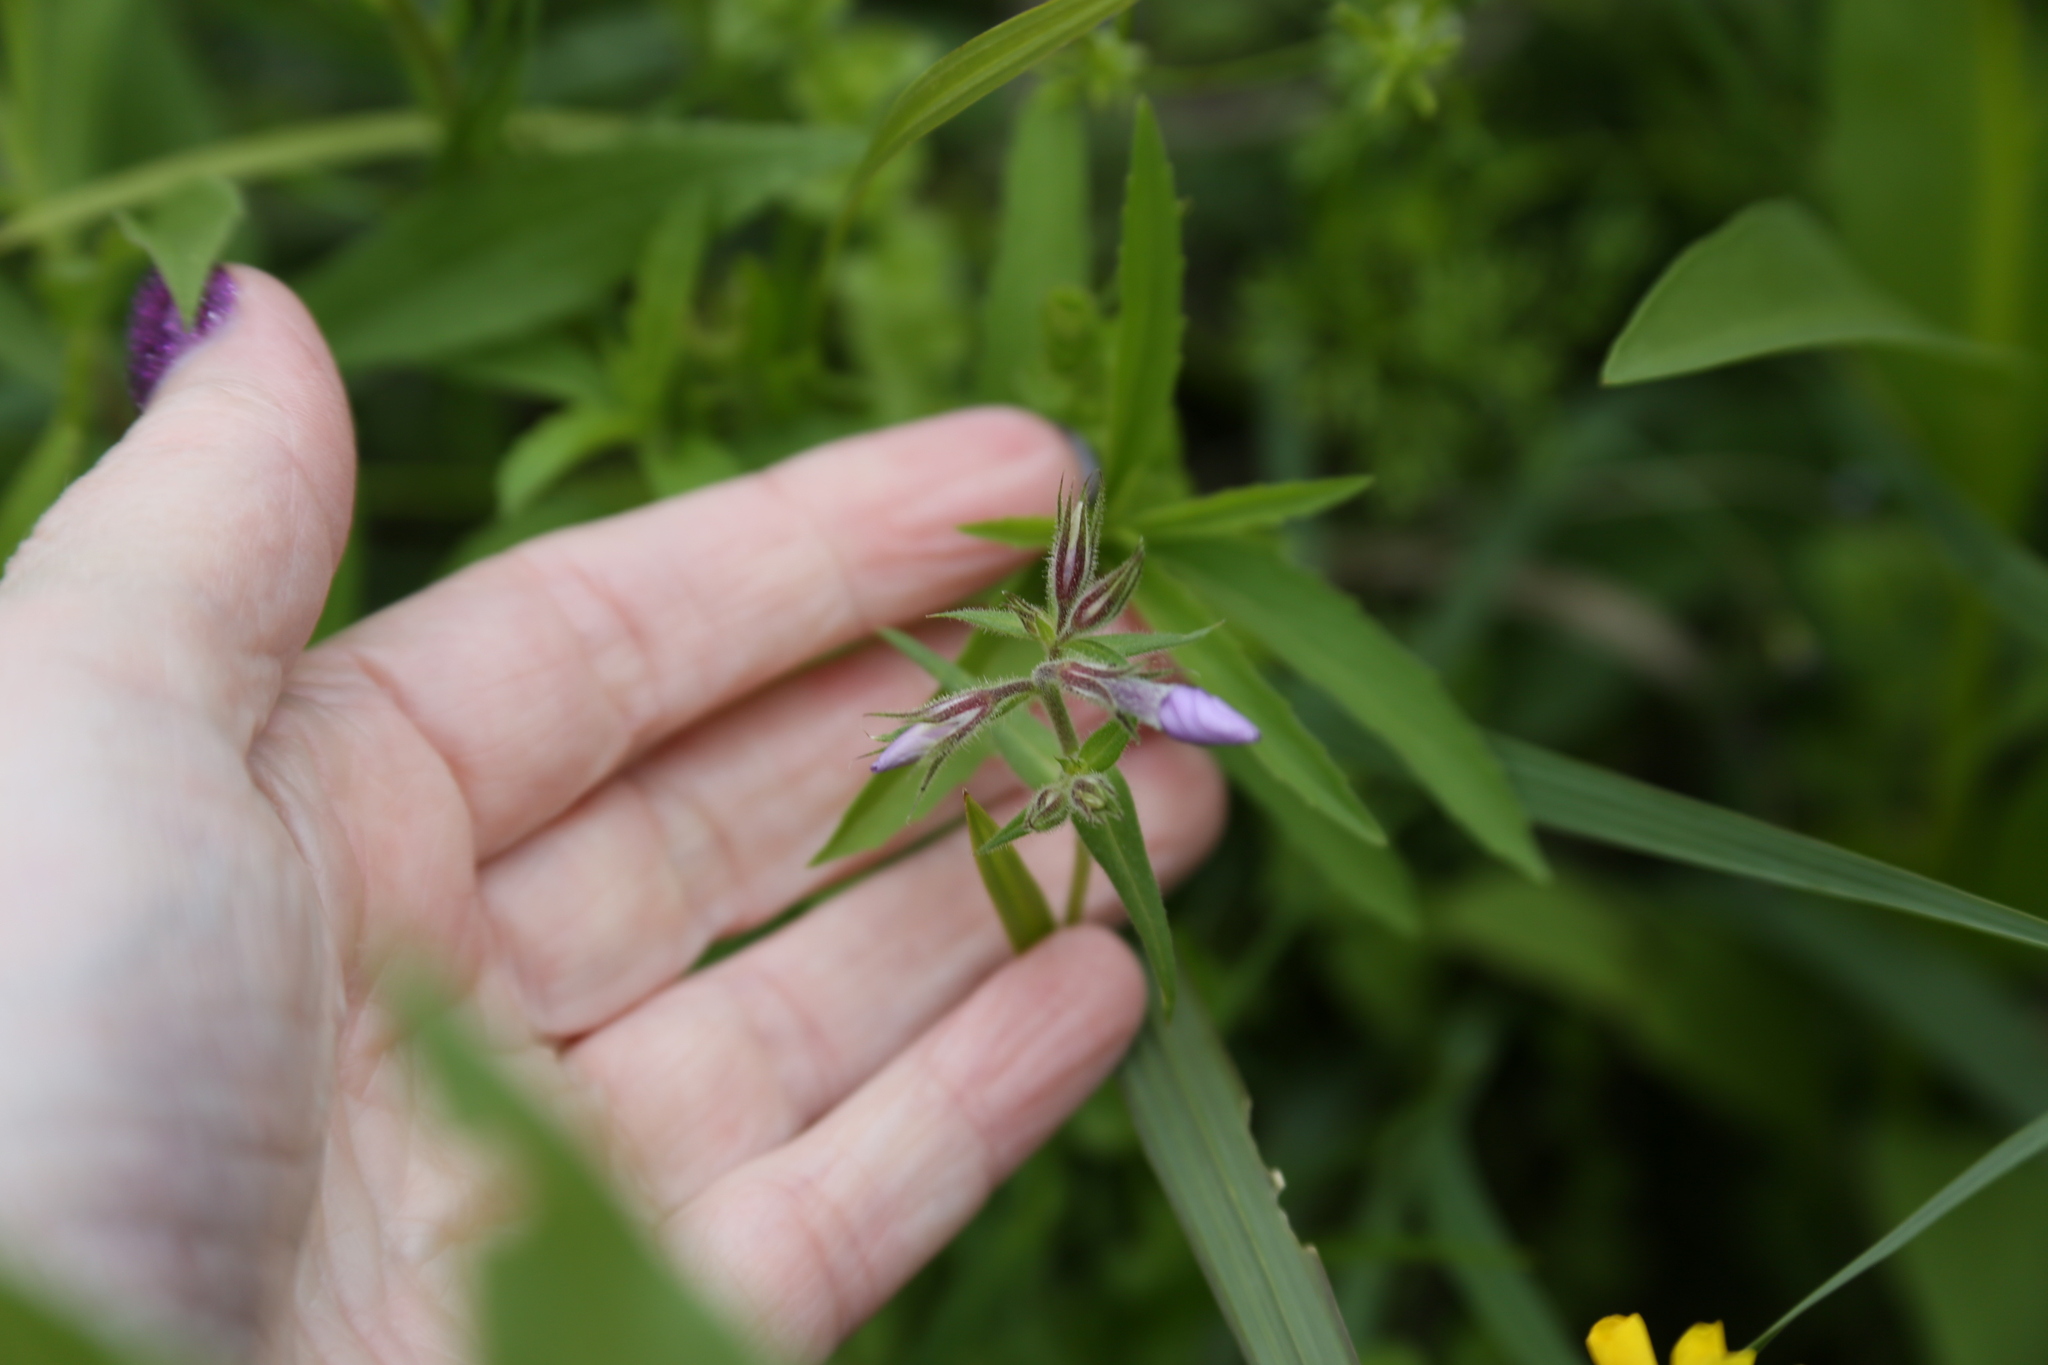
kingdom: Plantae
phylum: Tracheophyta
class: Magnoliopsida
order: Ericales
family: Polemoniaceae
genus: Phlox
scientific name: Phlox pilosa
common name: Prairie phlox
